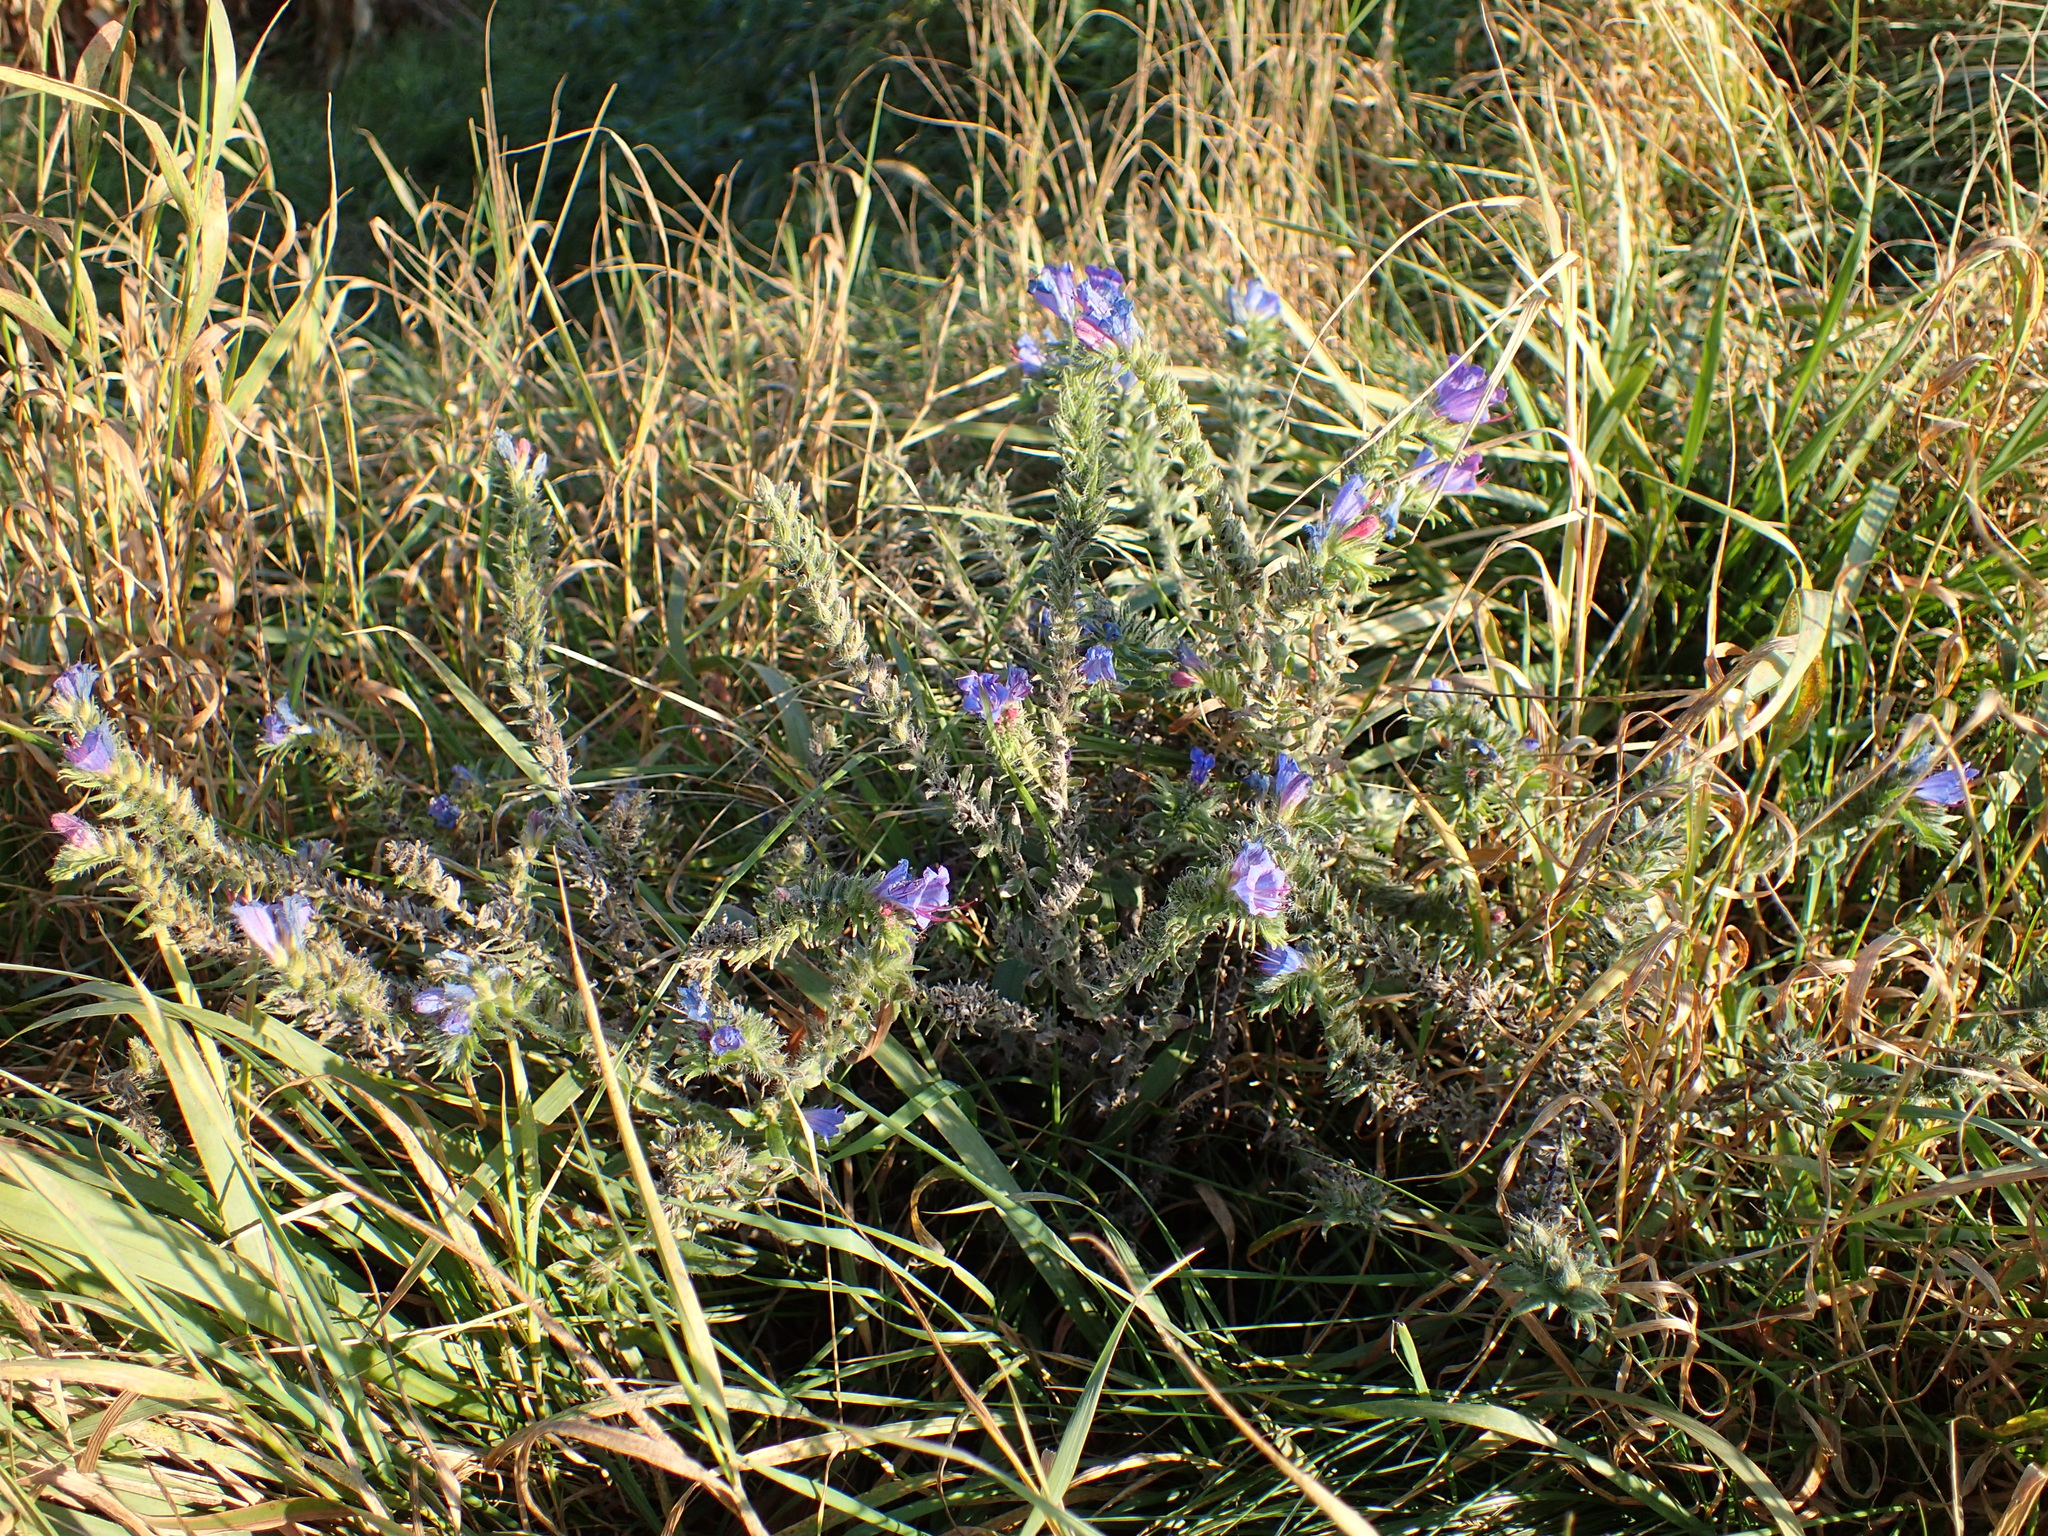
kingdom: Plantae
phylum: Tracheophyta
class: Magnoliopsida
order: Boraginales
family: Boraginaceae
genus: Echium
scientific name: Echium vulgare
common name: Common viper's bugloss
